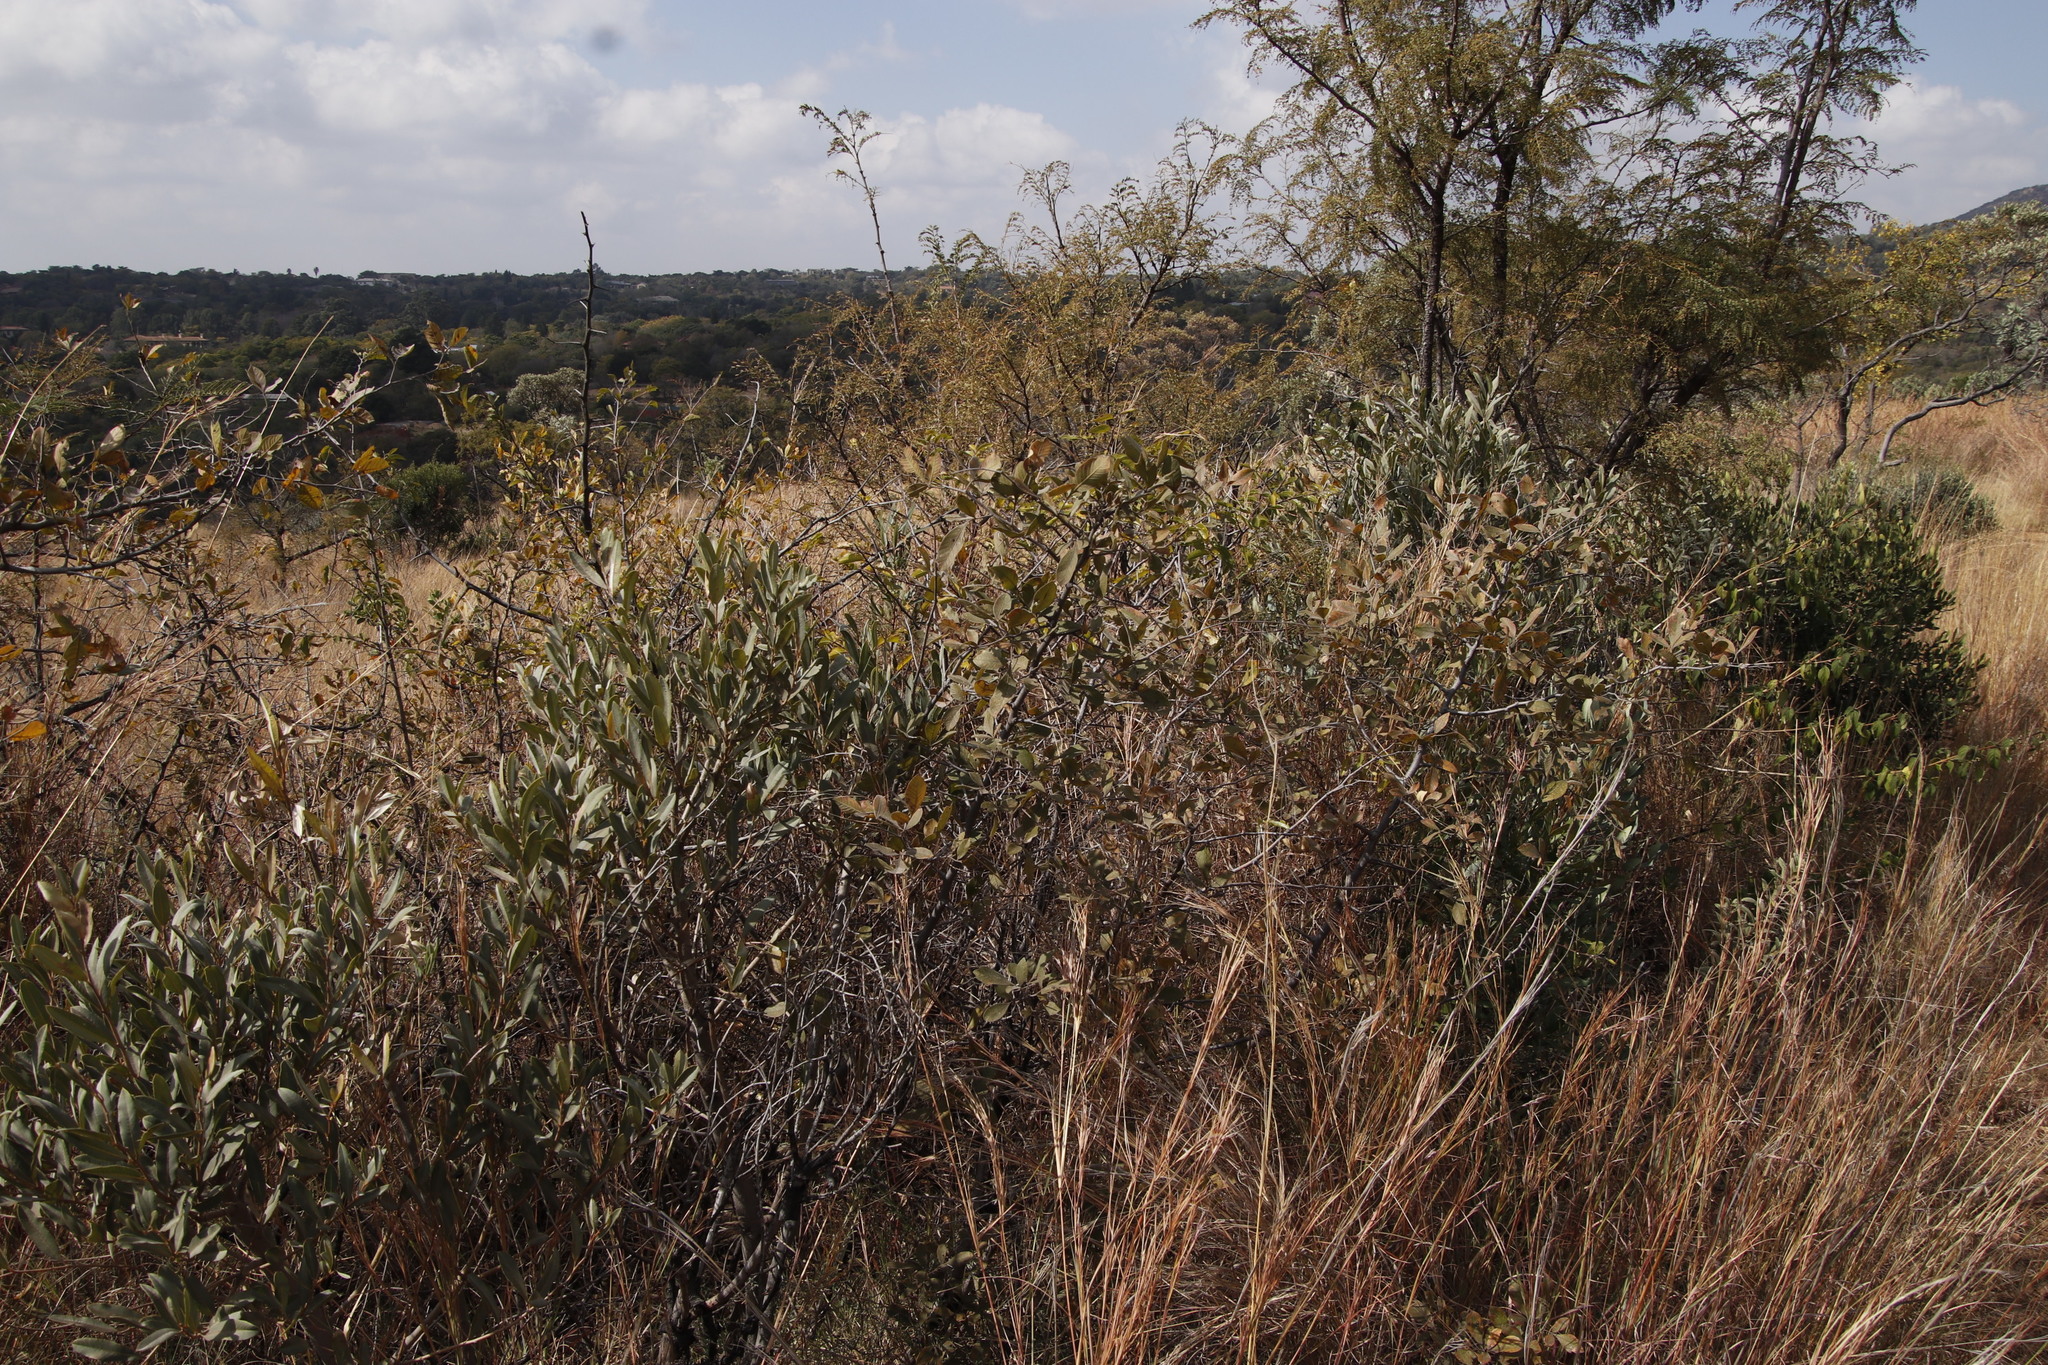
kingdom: Plantae
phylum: Tracheophyta
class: Magnoliopsida
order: Sapindales
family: Anacardiaceae
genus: Searsia
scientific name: Searsia pyroides
